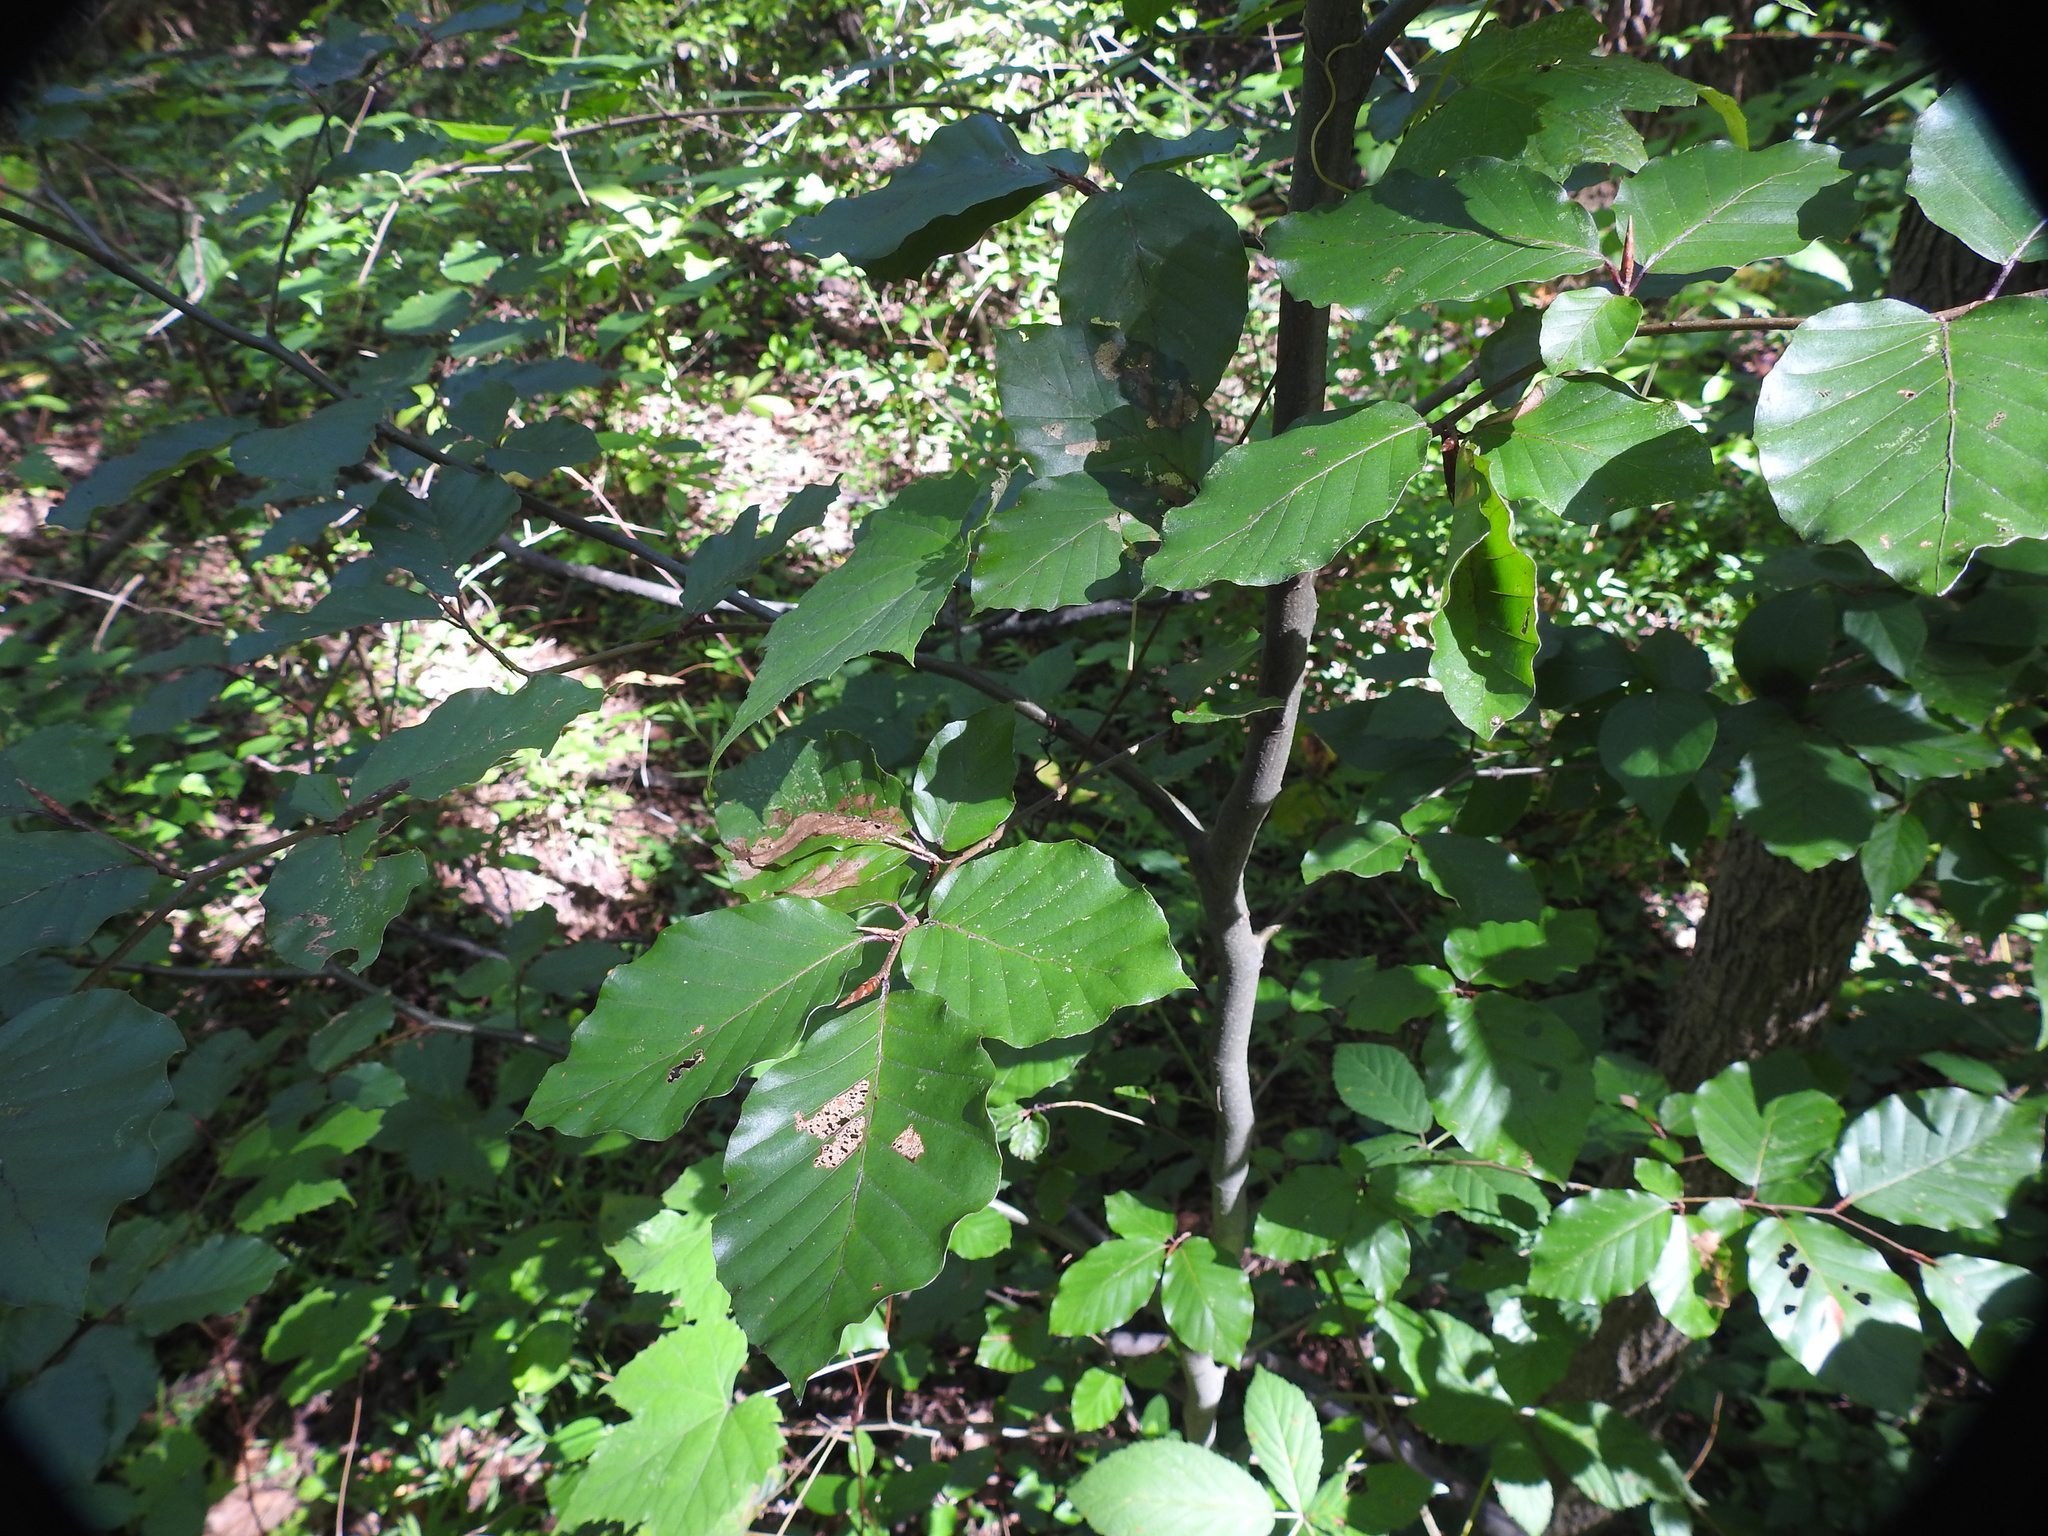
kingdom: Plantae
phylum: Tracheophyta
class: Magnoliopsida
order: Fagales
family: Fagaceae
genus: Fagus
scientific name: Fagus sylvatica
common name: Beech
